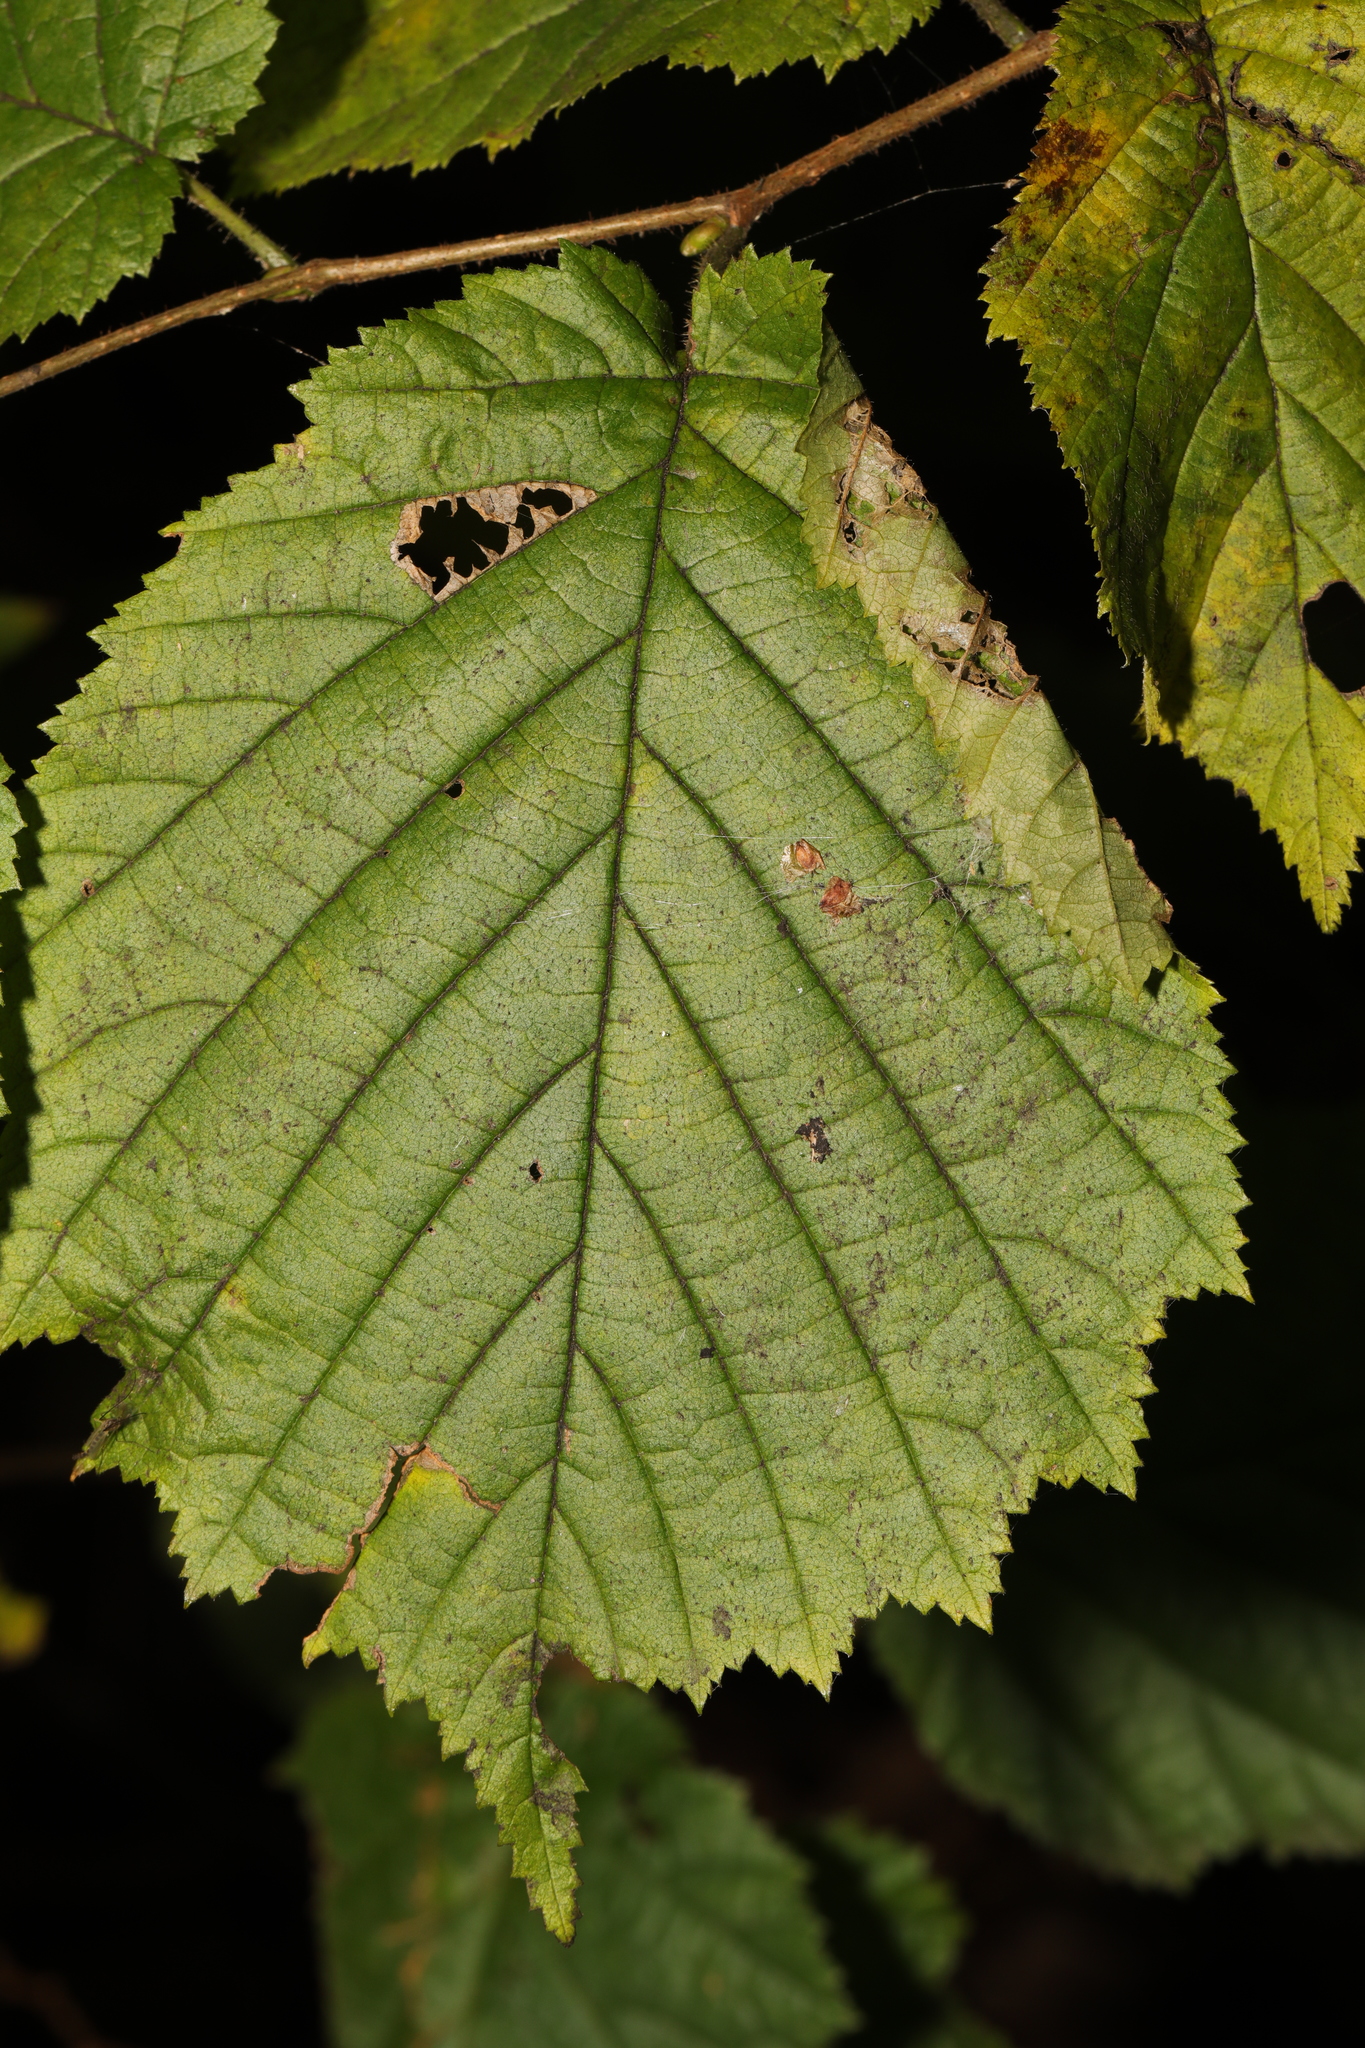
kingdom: Plantae
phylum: Tracheophyta
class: Magnoliopsida
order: Fagales
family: Betulaceae
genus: Corylus
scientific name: Corylus avellana
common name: European hazel
